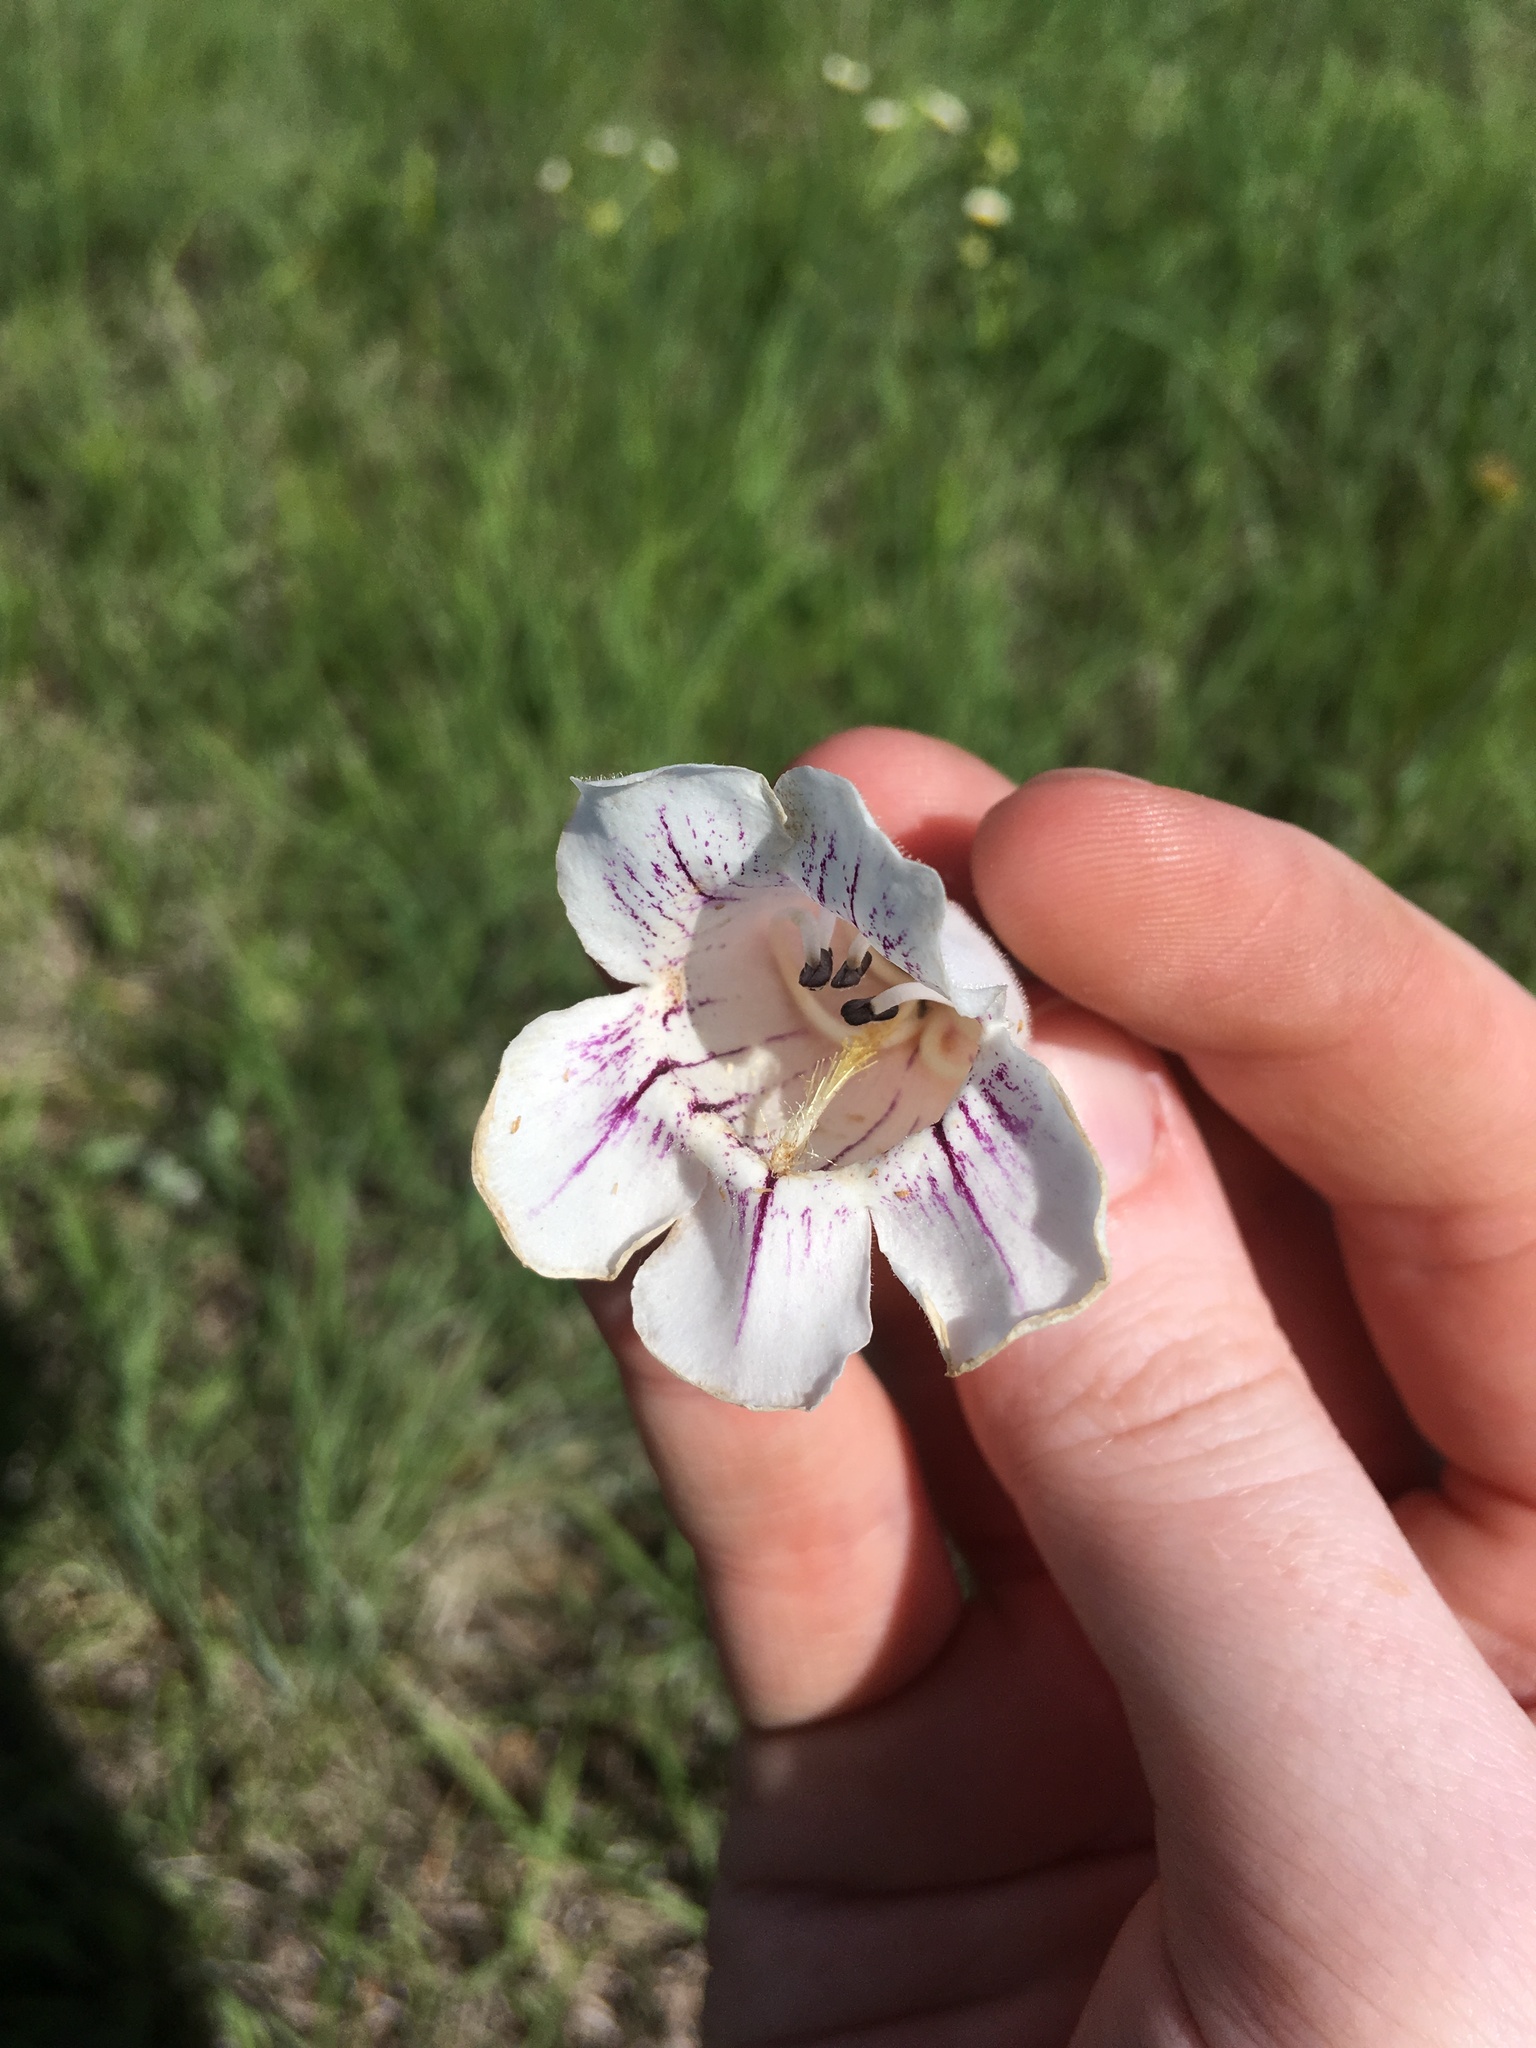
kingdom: Plantae
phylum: Tracheophyta
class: Magnoliopsida
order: Lamiales
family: Plantaginaceae
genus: Penstemon
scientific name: Penstemon cobaea
